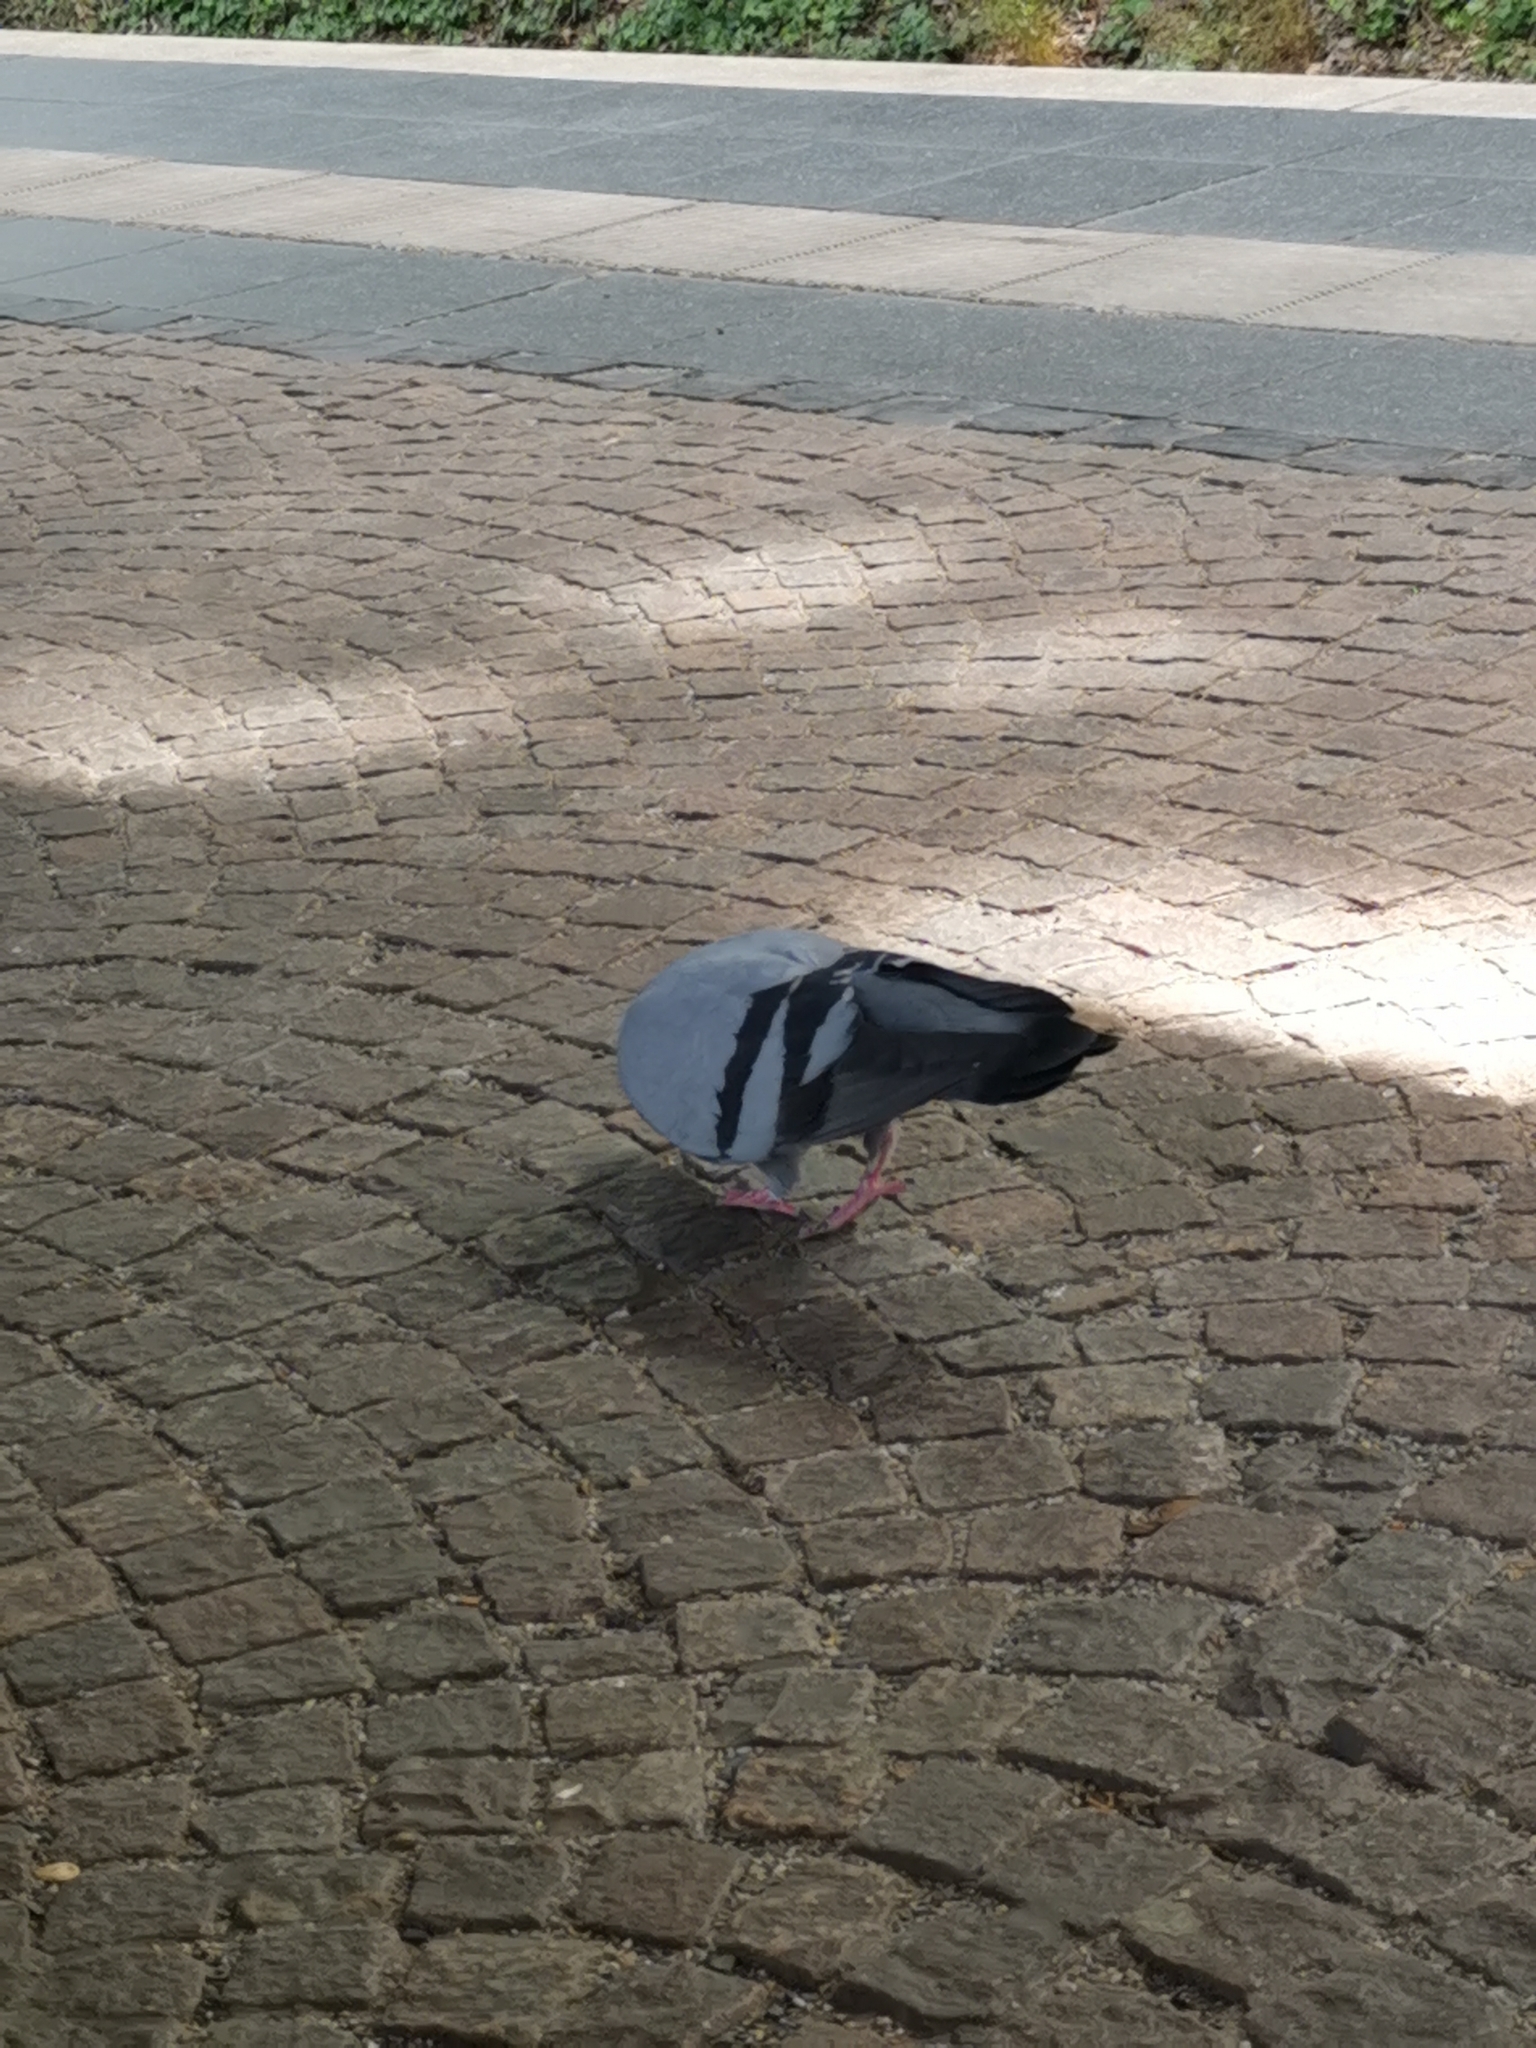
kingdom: Animalia
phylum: Chordata
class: Aves
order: Columbiformes
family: Columbidae
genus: Columba
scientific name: Columba livia
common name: Rock pigeon
